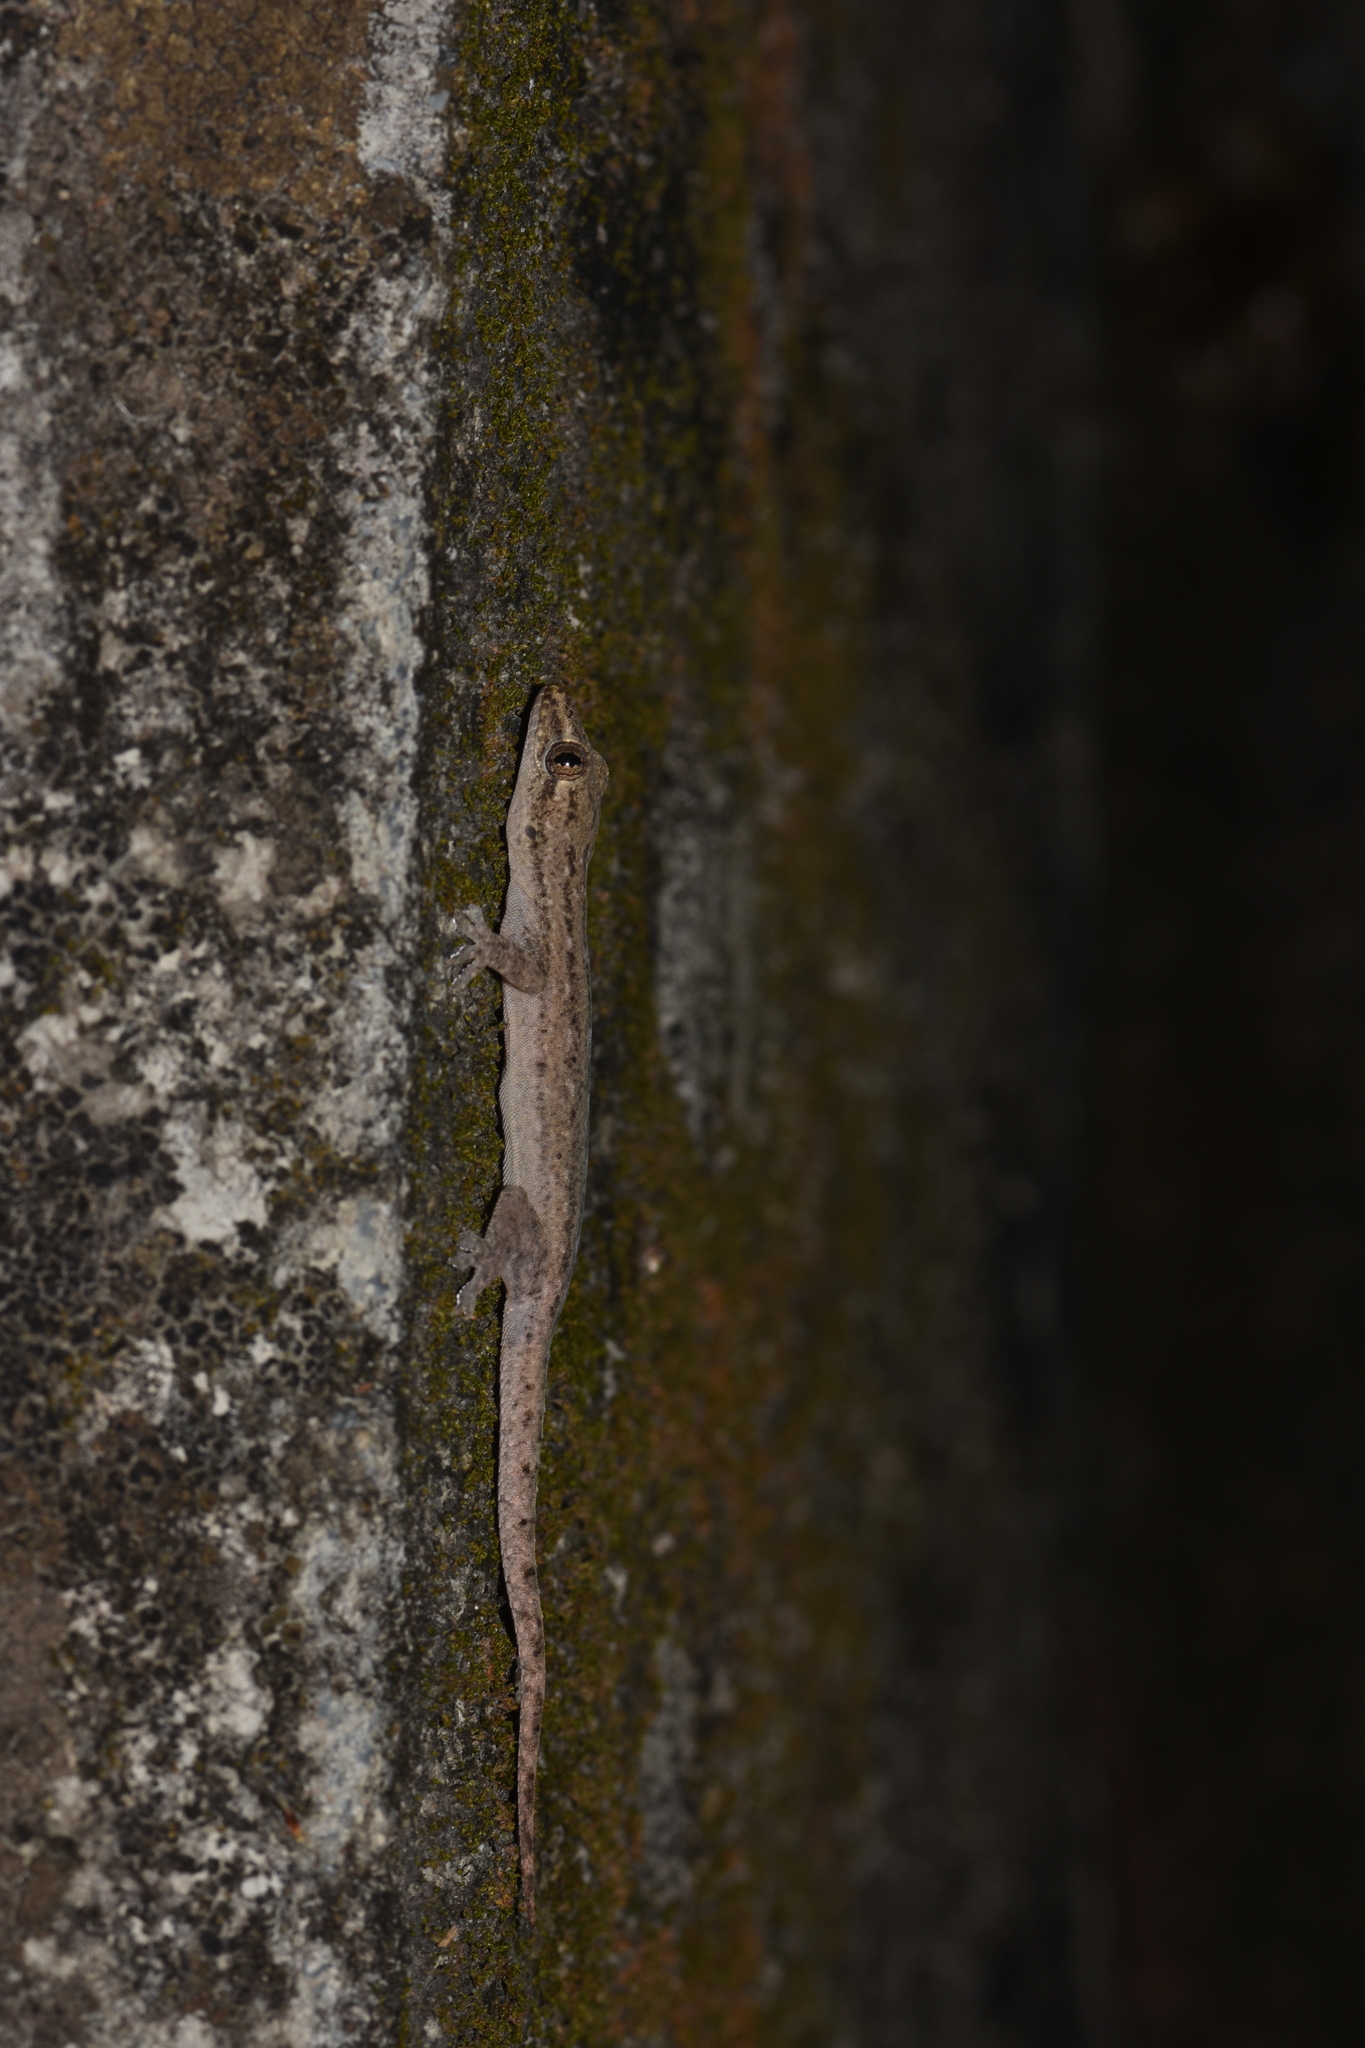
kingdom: Animalia
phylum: Chordata
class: Squamata
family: Gekkonidae
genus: Hemidactylus
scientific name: Hemidactylus frenatus
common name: Common house gecko
